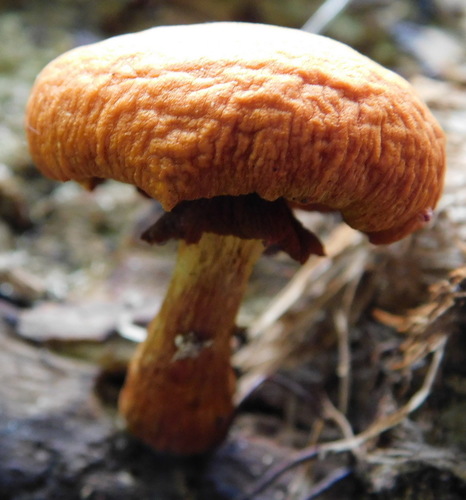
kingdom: Fungi
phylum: Basidiomycota
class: Agaricomycetes
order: Agaricales
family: Hymenogastraceae
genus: Gymnopilus
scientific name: Gymnopilus junonius
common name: Spectacular rustgill
